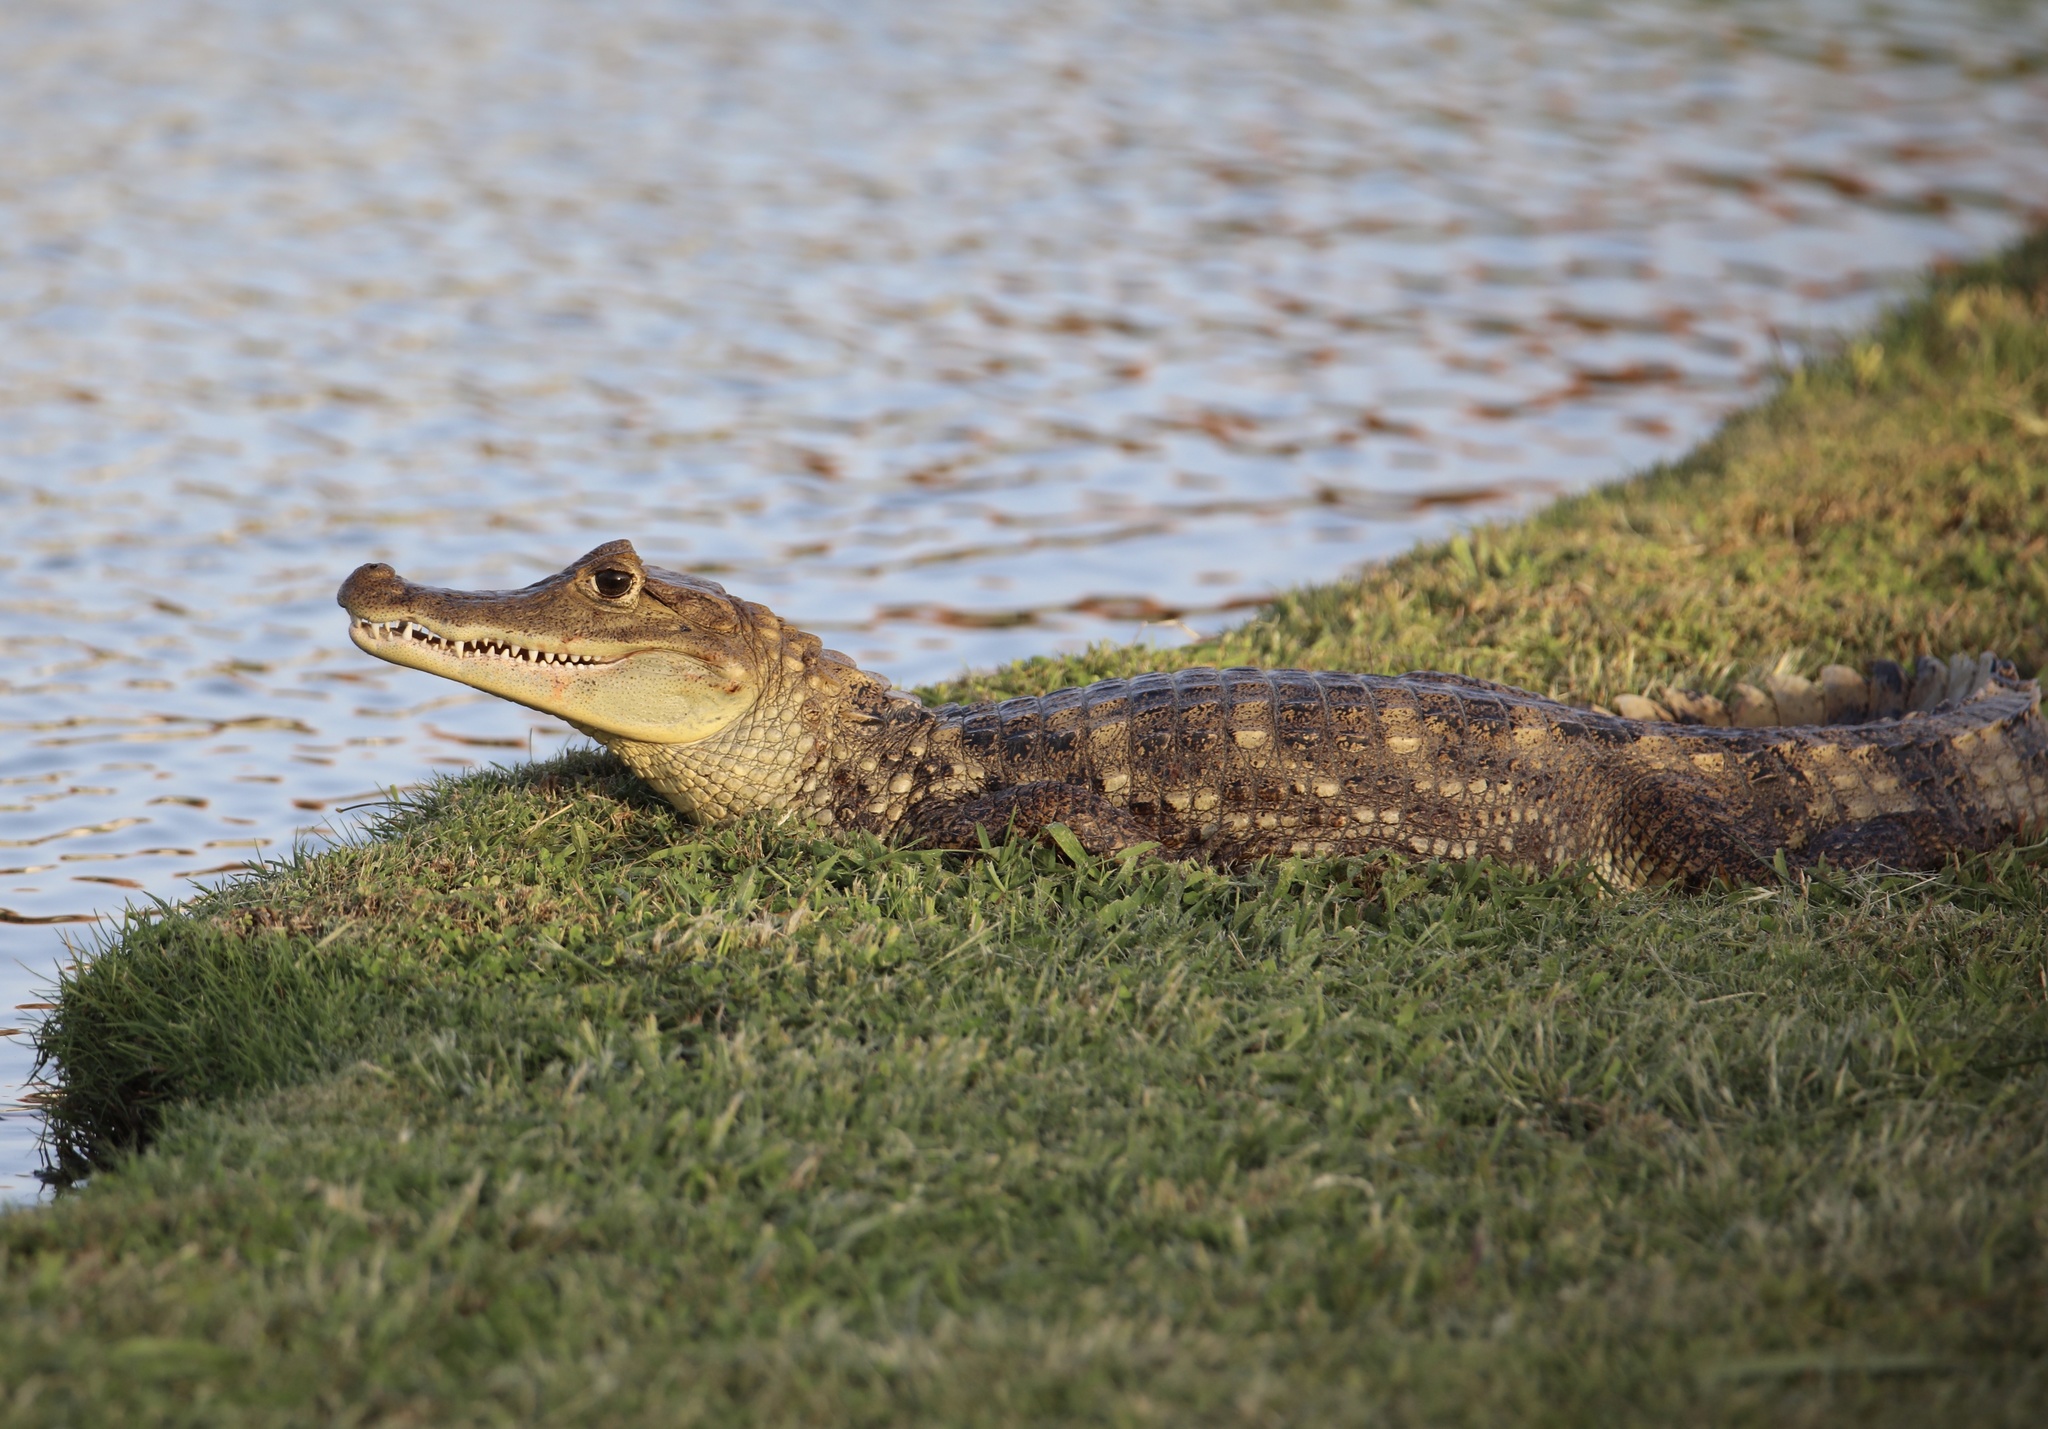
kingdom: Animalia
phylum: Chordata
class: Crocodylia
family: Alligatoridae
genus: Caiman
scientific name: Caiman crocodilus
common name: Common caiman
